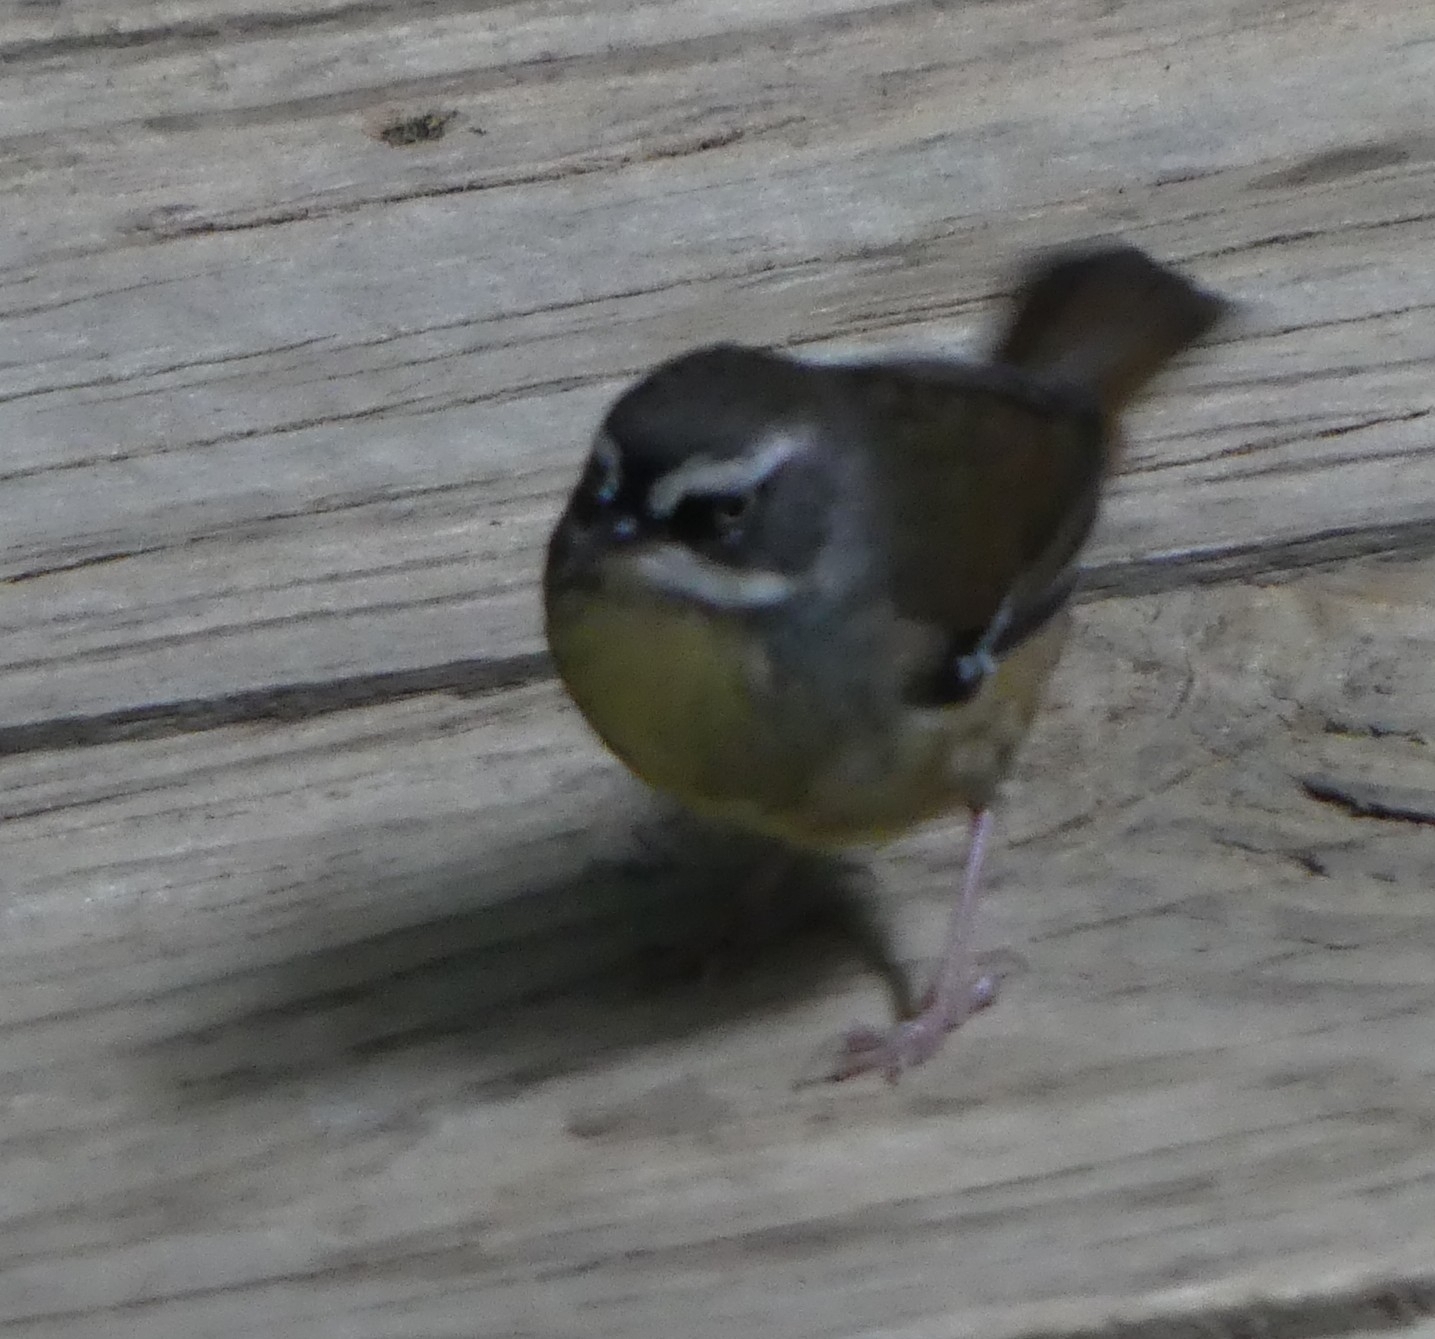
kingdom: Animalia
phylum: Chordata
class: Aves
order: Passeriformes
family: Acanthizidae
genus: Sericornis
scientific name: Sericornis frontalis
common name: White-browed scrubwren
